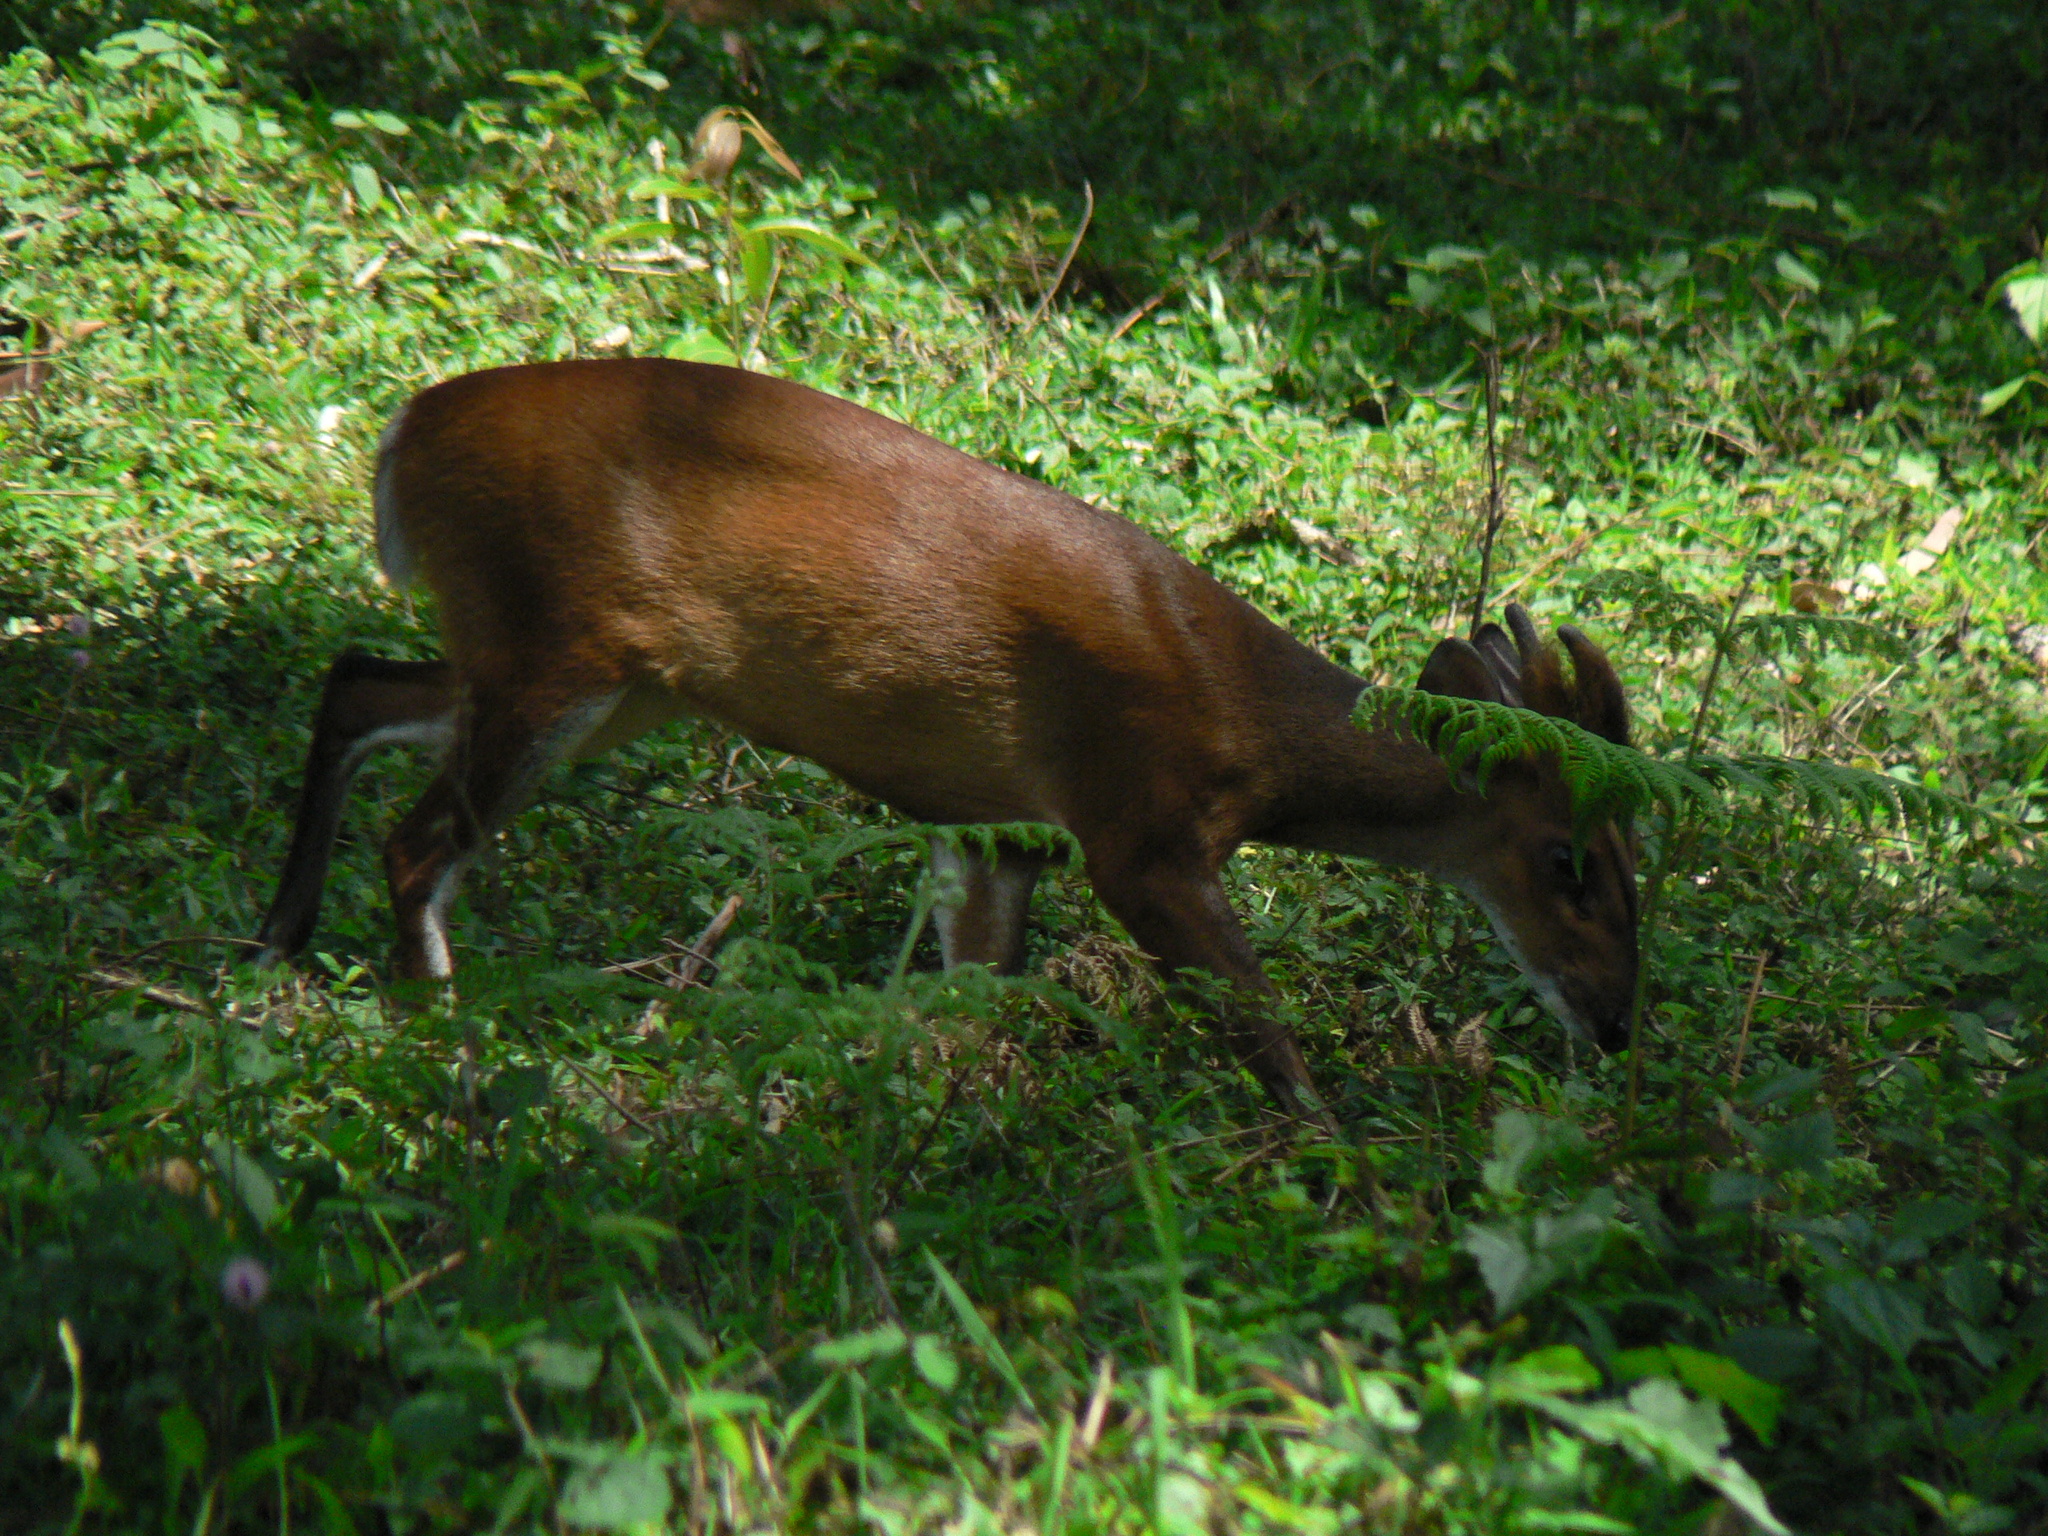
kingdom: Animalia
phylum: Chordata
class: Mammalia
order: Artiodactyla
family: Cervidae
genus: Muntiacus
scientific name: Muntiacus muntjak
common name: Indian muntjac
